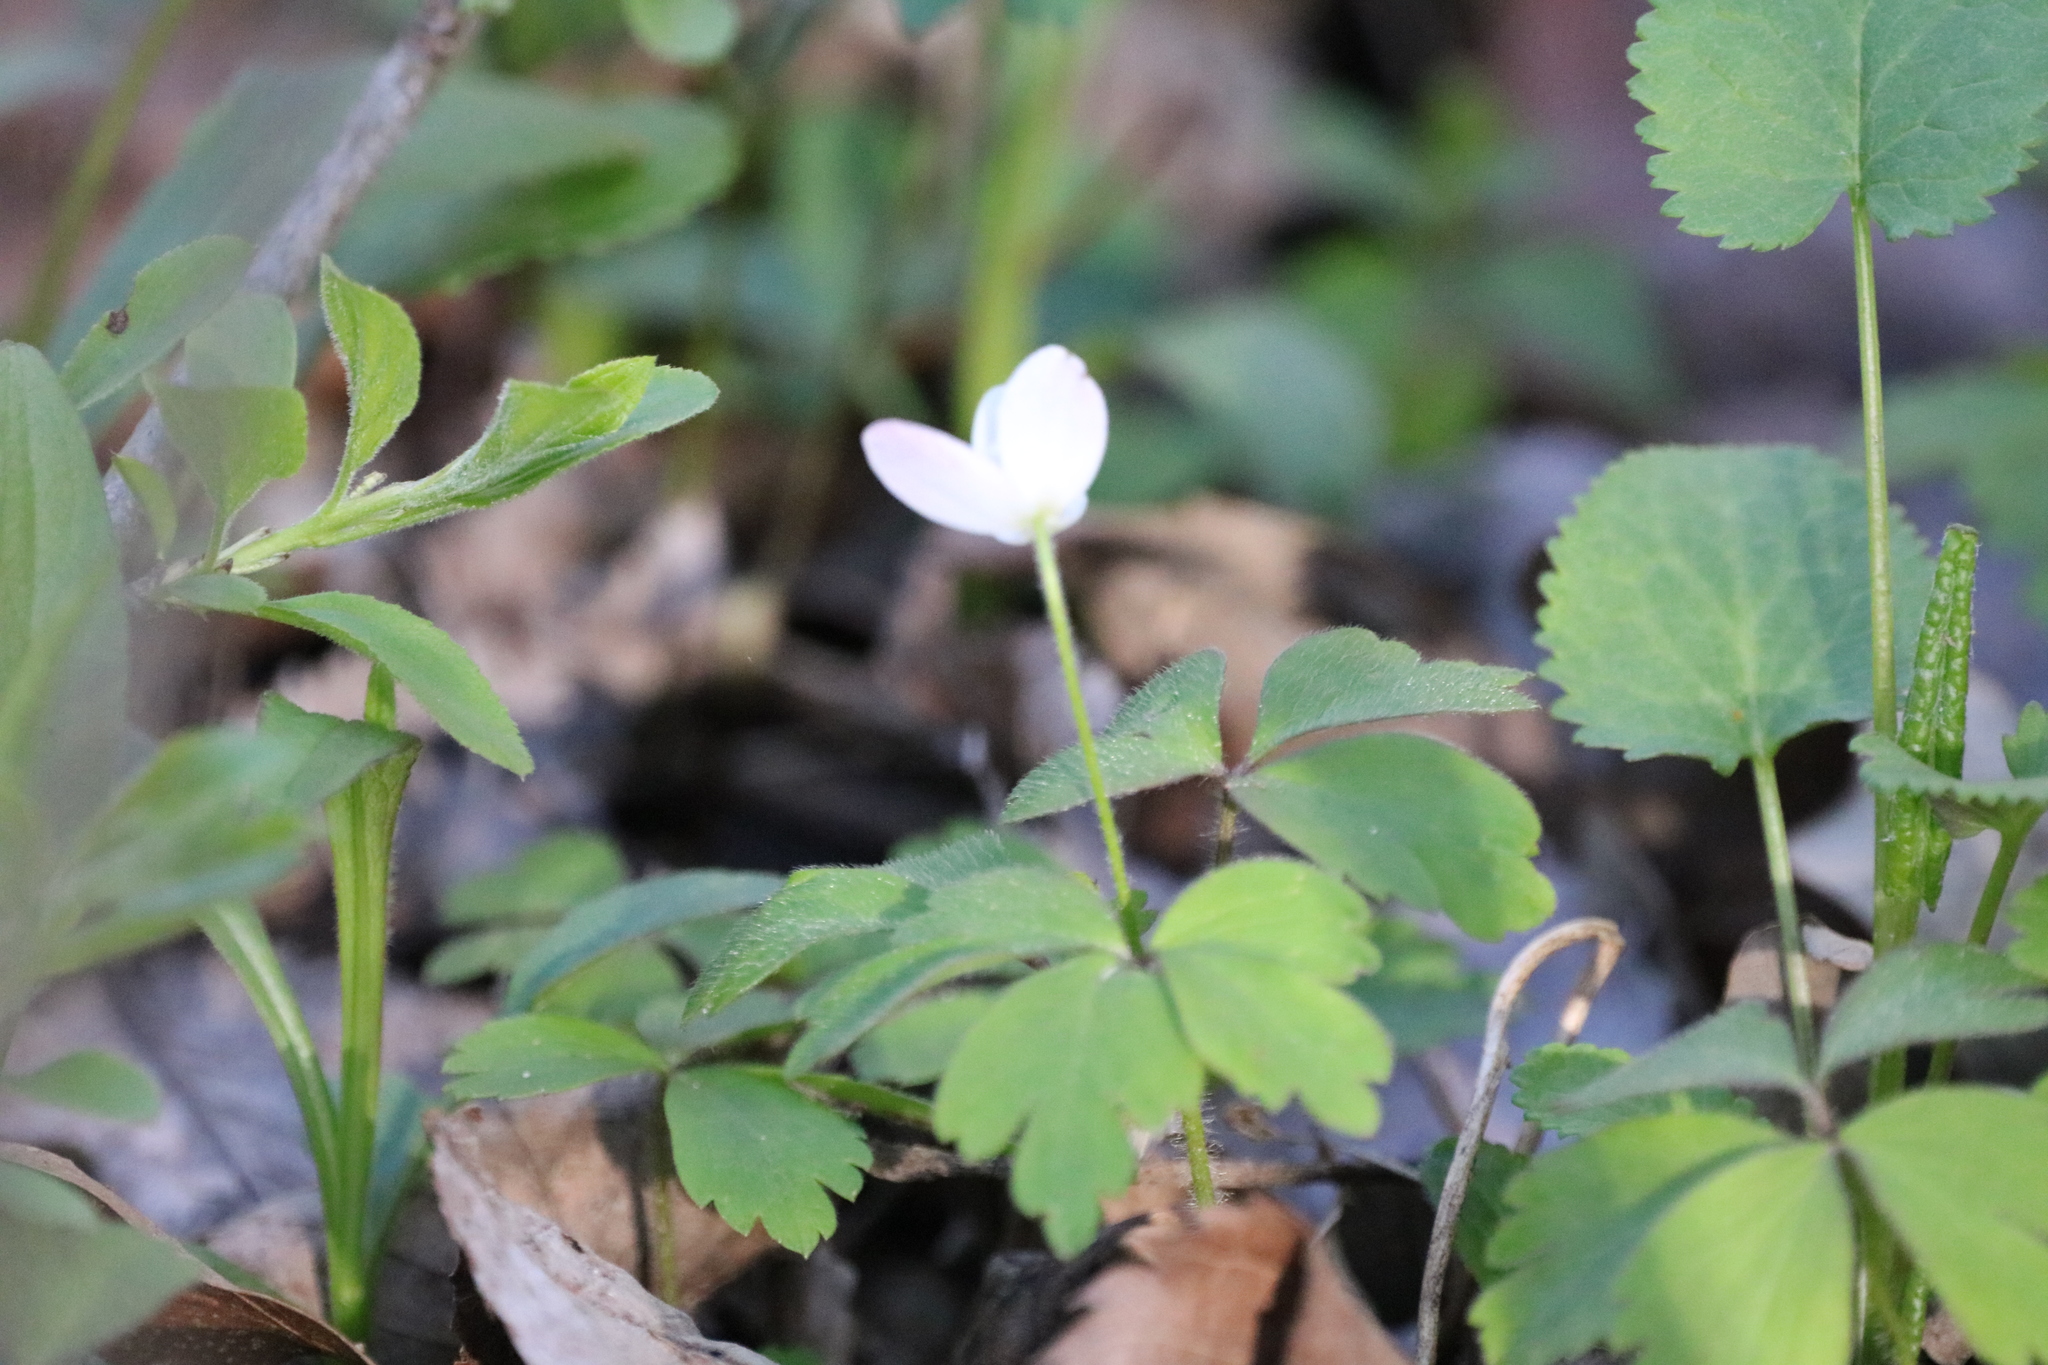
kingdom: Plantae
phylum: Tracheophyta
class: Magnoliopsida
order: Ranunculales
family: Ranunculaceae
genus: Anemone
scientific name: Anemone quinquefolia
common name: Wood anemone
